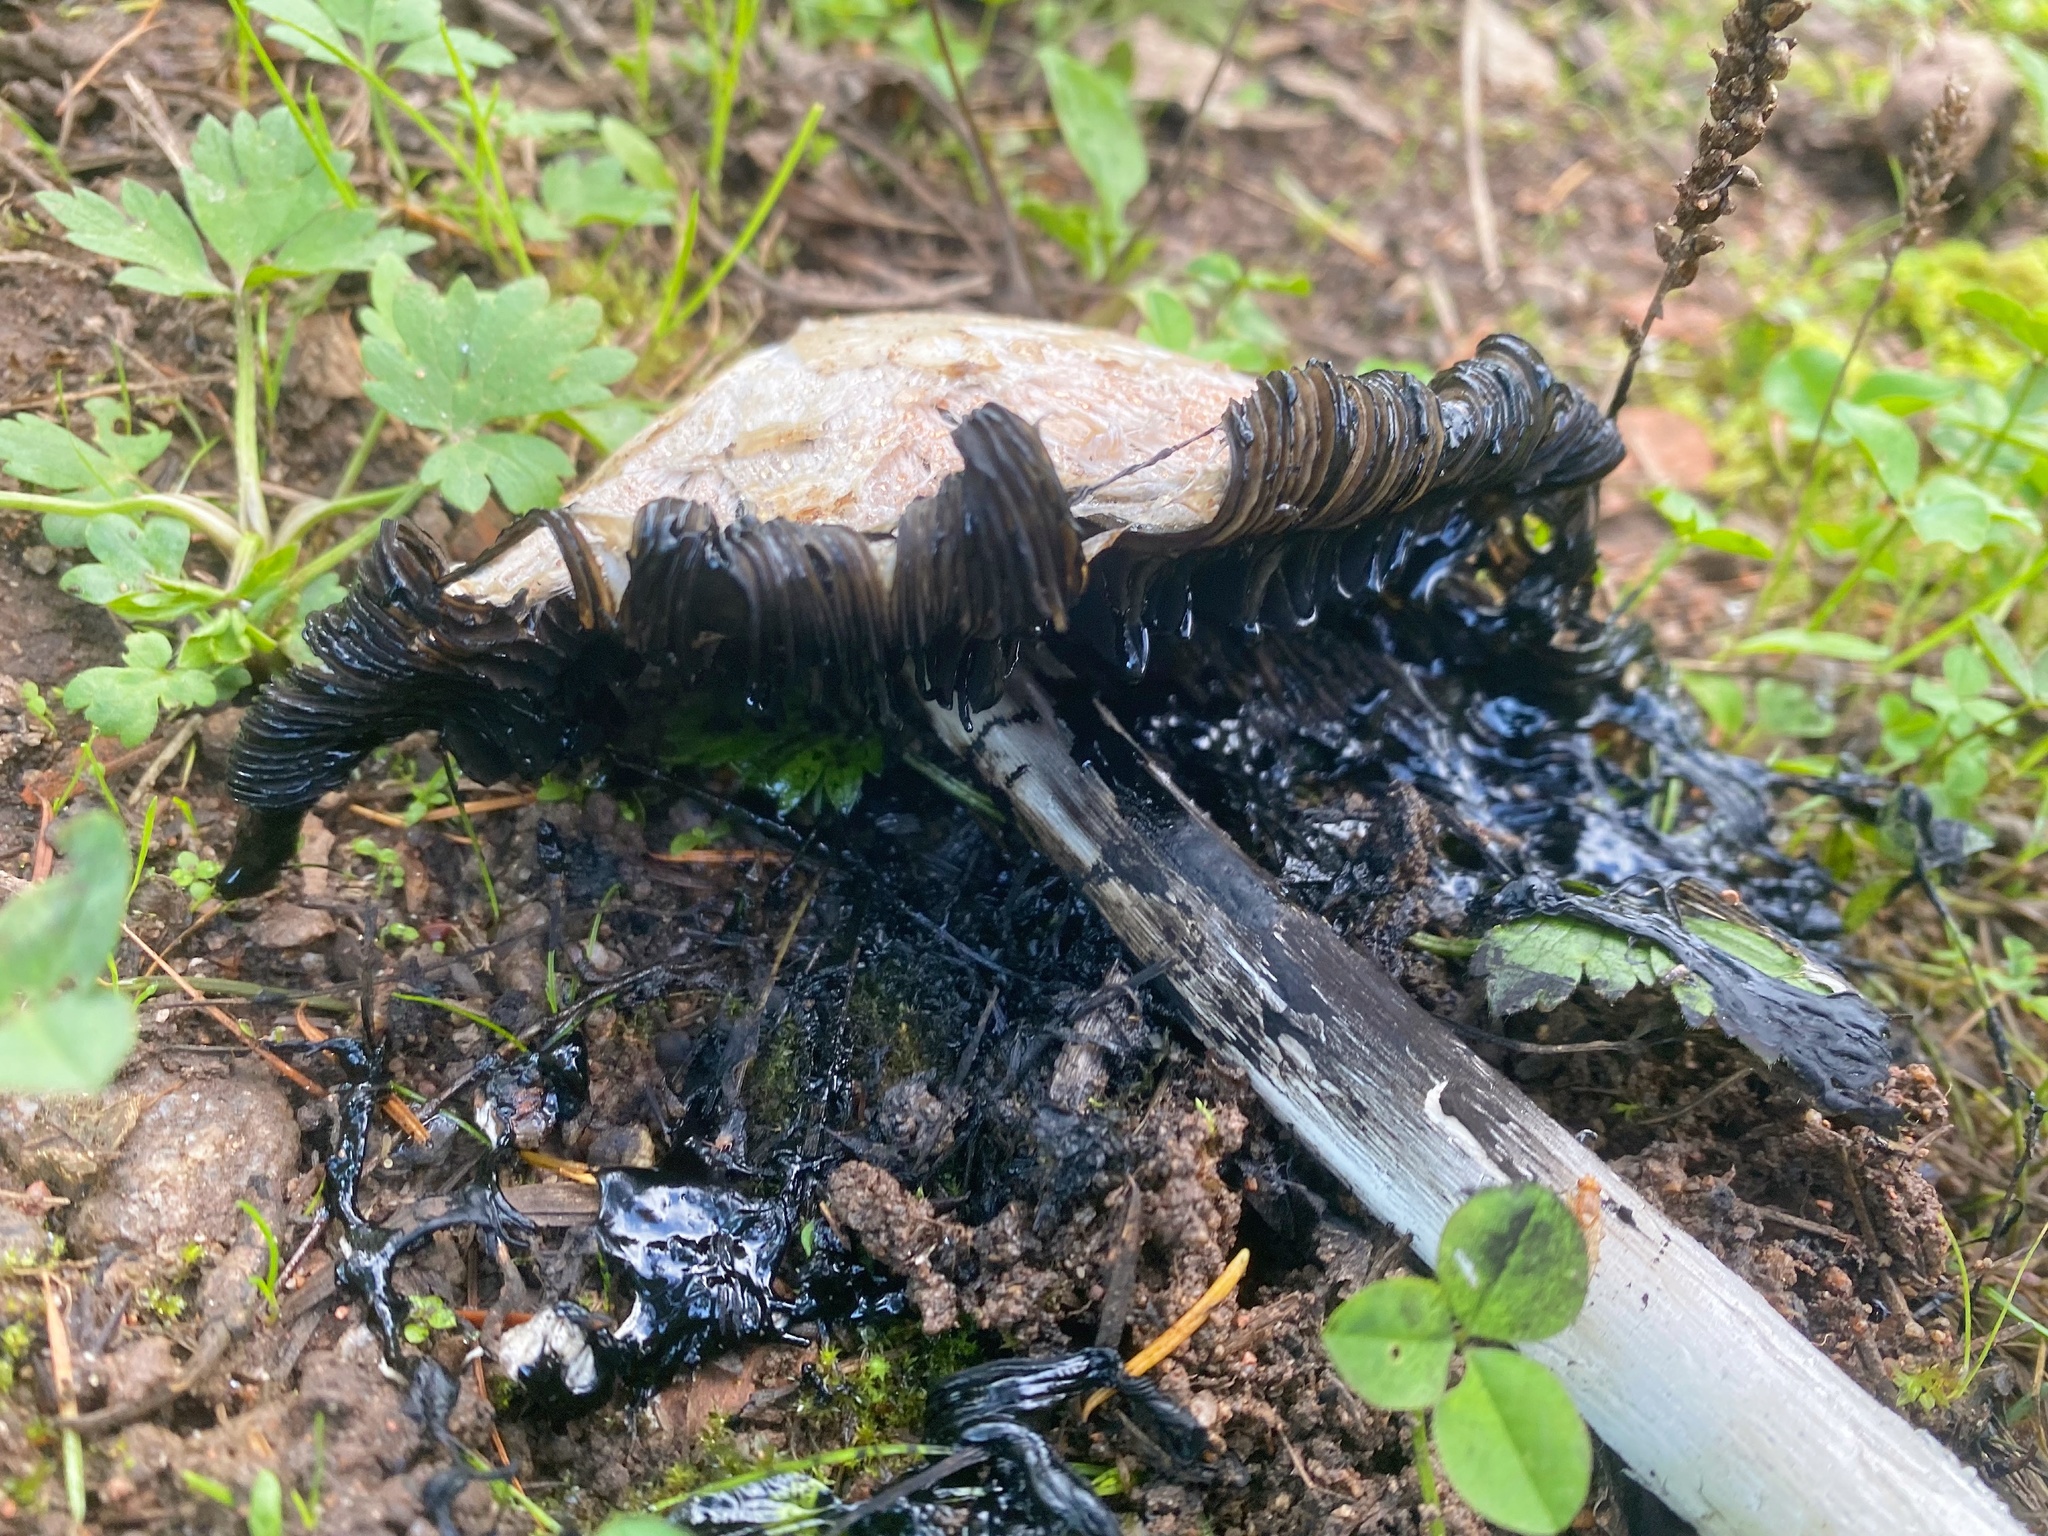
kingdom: Fungi
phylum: Basidiomycota
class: Agaricomycetes
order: Agaricales
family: Agaricaceae
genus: Coprinus
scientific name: Coprinus comatus
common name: Lawyer's wig
